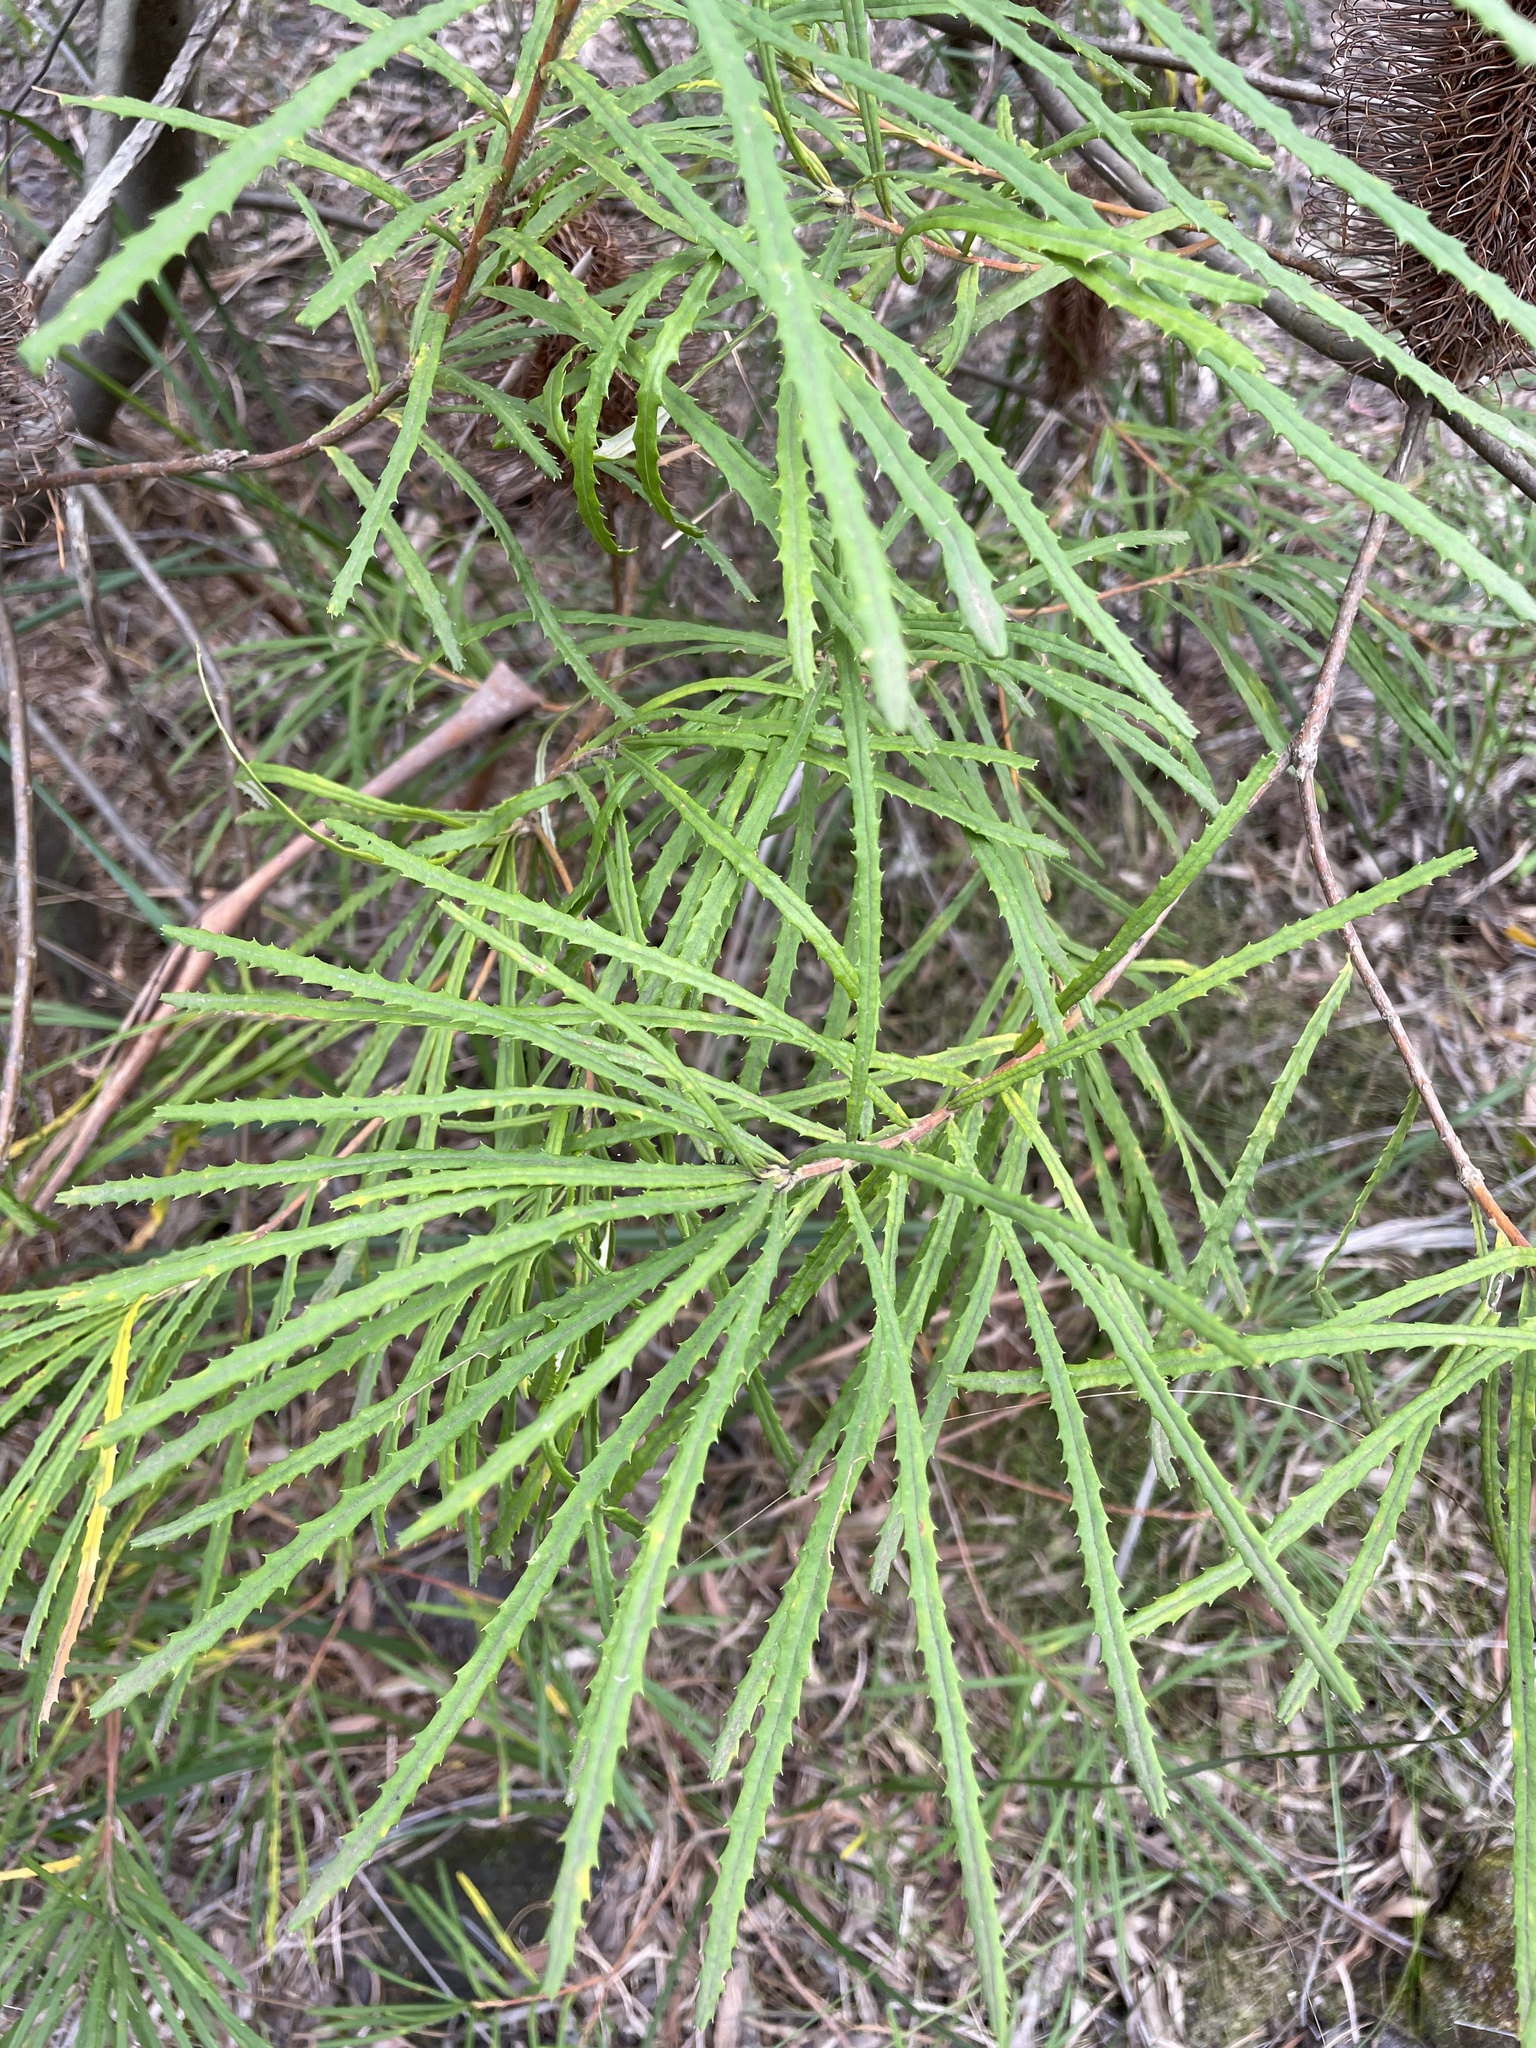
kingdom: Plantae
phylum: Tracheophyta
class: Magnoliopsida
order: Proteales
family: Proteaceae
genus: Banksia
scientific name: Banksia spinulosa
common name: Hairpin banksia
